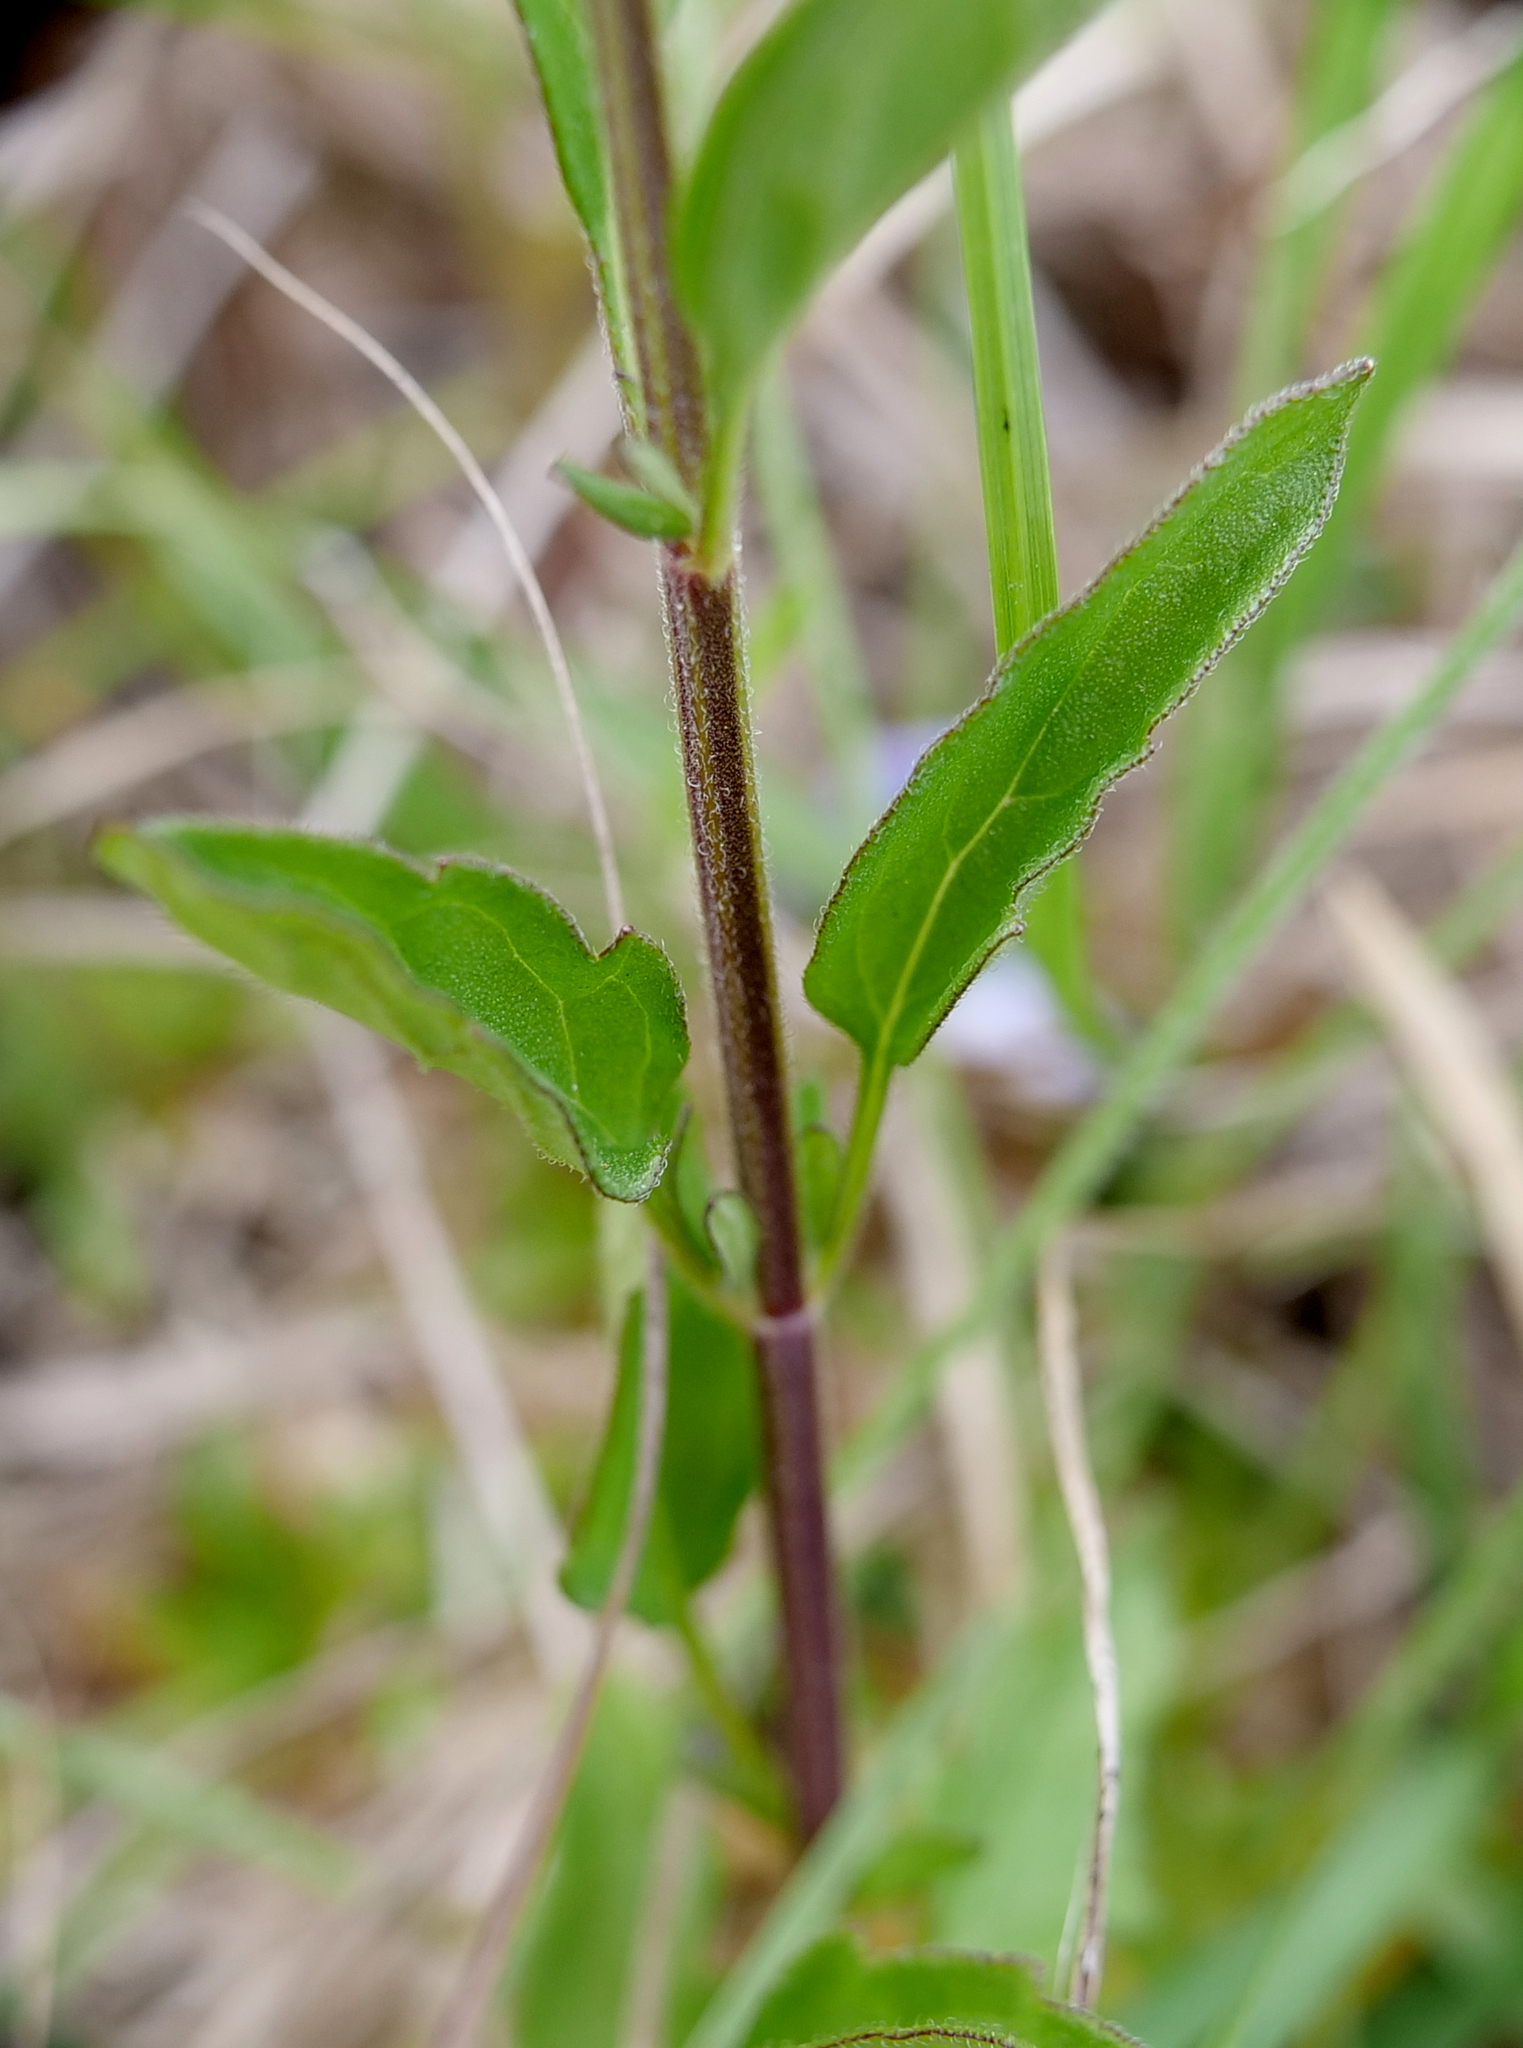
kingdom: Plantae
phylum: Tracheophyta
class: Magnoliopsida
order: Lamiales
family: Lamiaceae
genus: Scutellaria
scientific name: Scutellaria integrifolia
